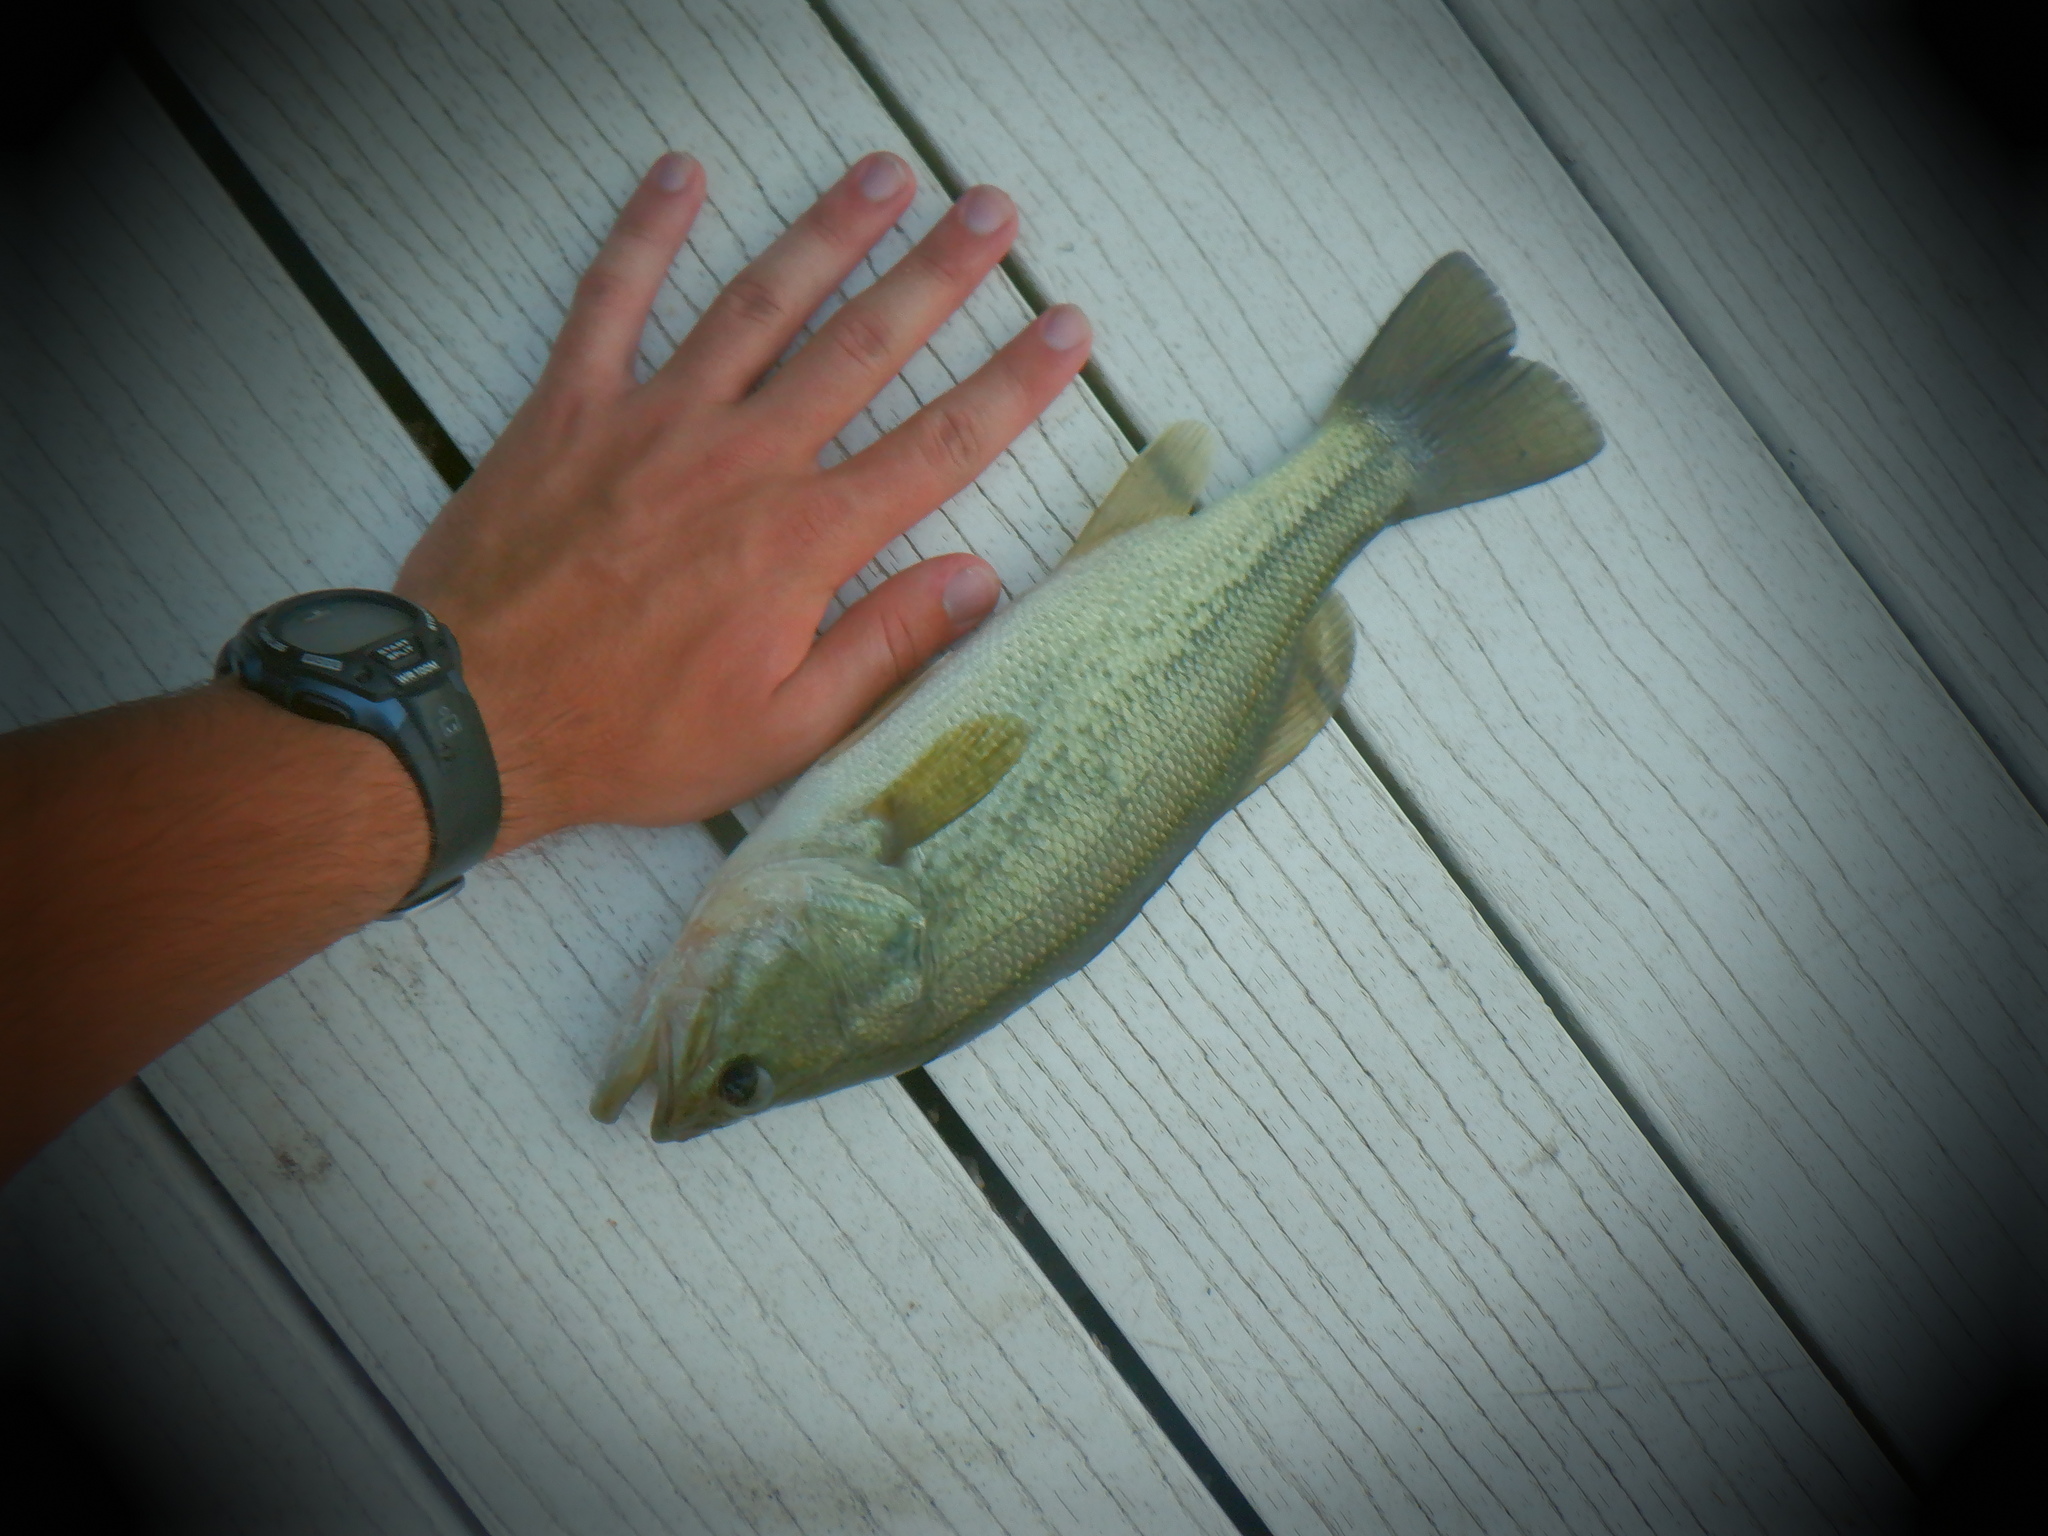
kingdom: Animalia
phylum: Chordata
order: Perciformes
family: Centrarchidae
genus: Micropterus
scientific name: Micropterus
